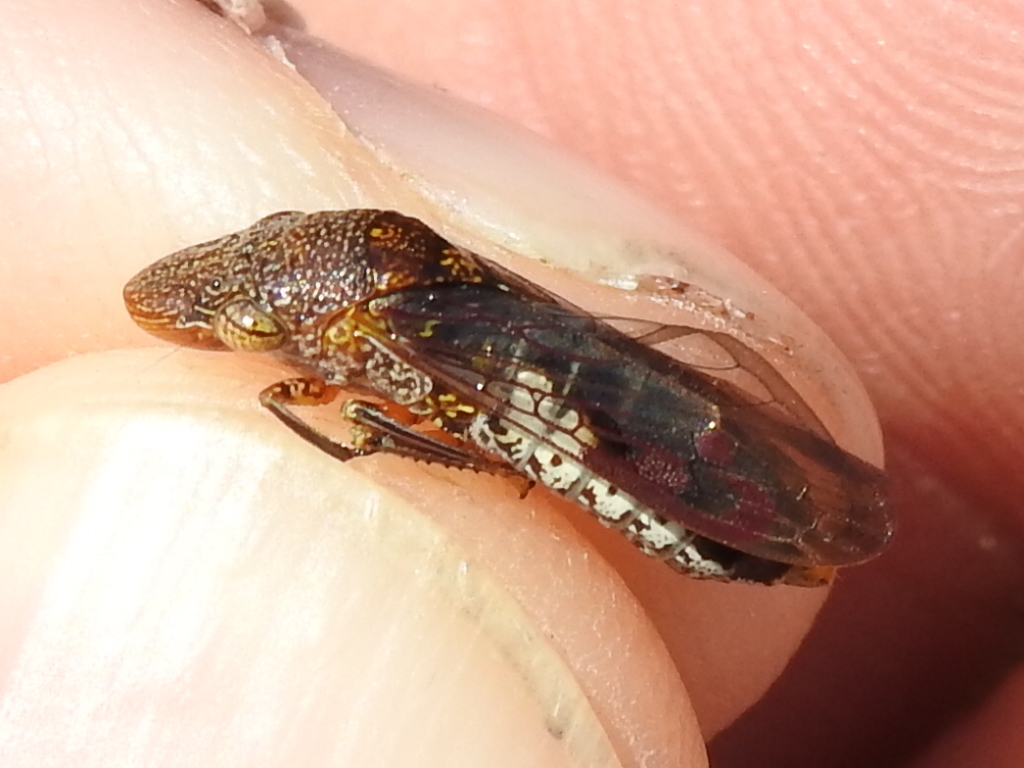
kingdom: Animalia
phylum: Arthropoda
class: Insecta
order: Hemiptera
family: Cicadellidae
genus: Homalodisca
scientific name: Homalodisca vitripennis
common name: Glassy-winged sharpshooter
